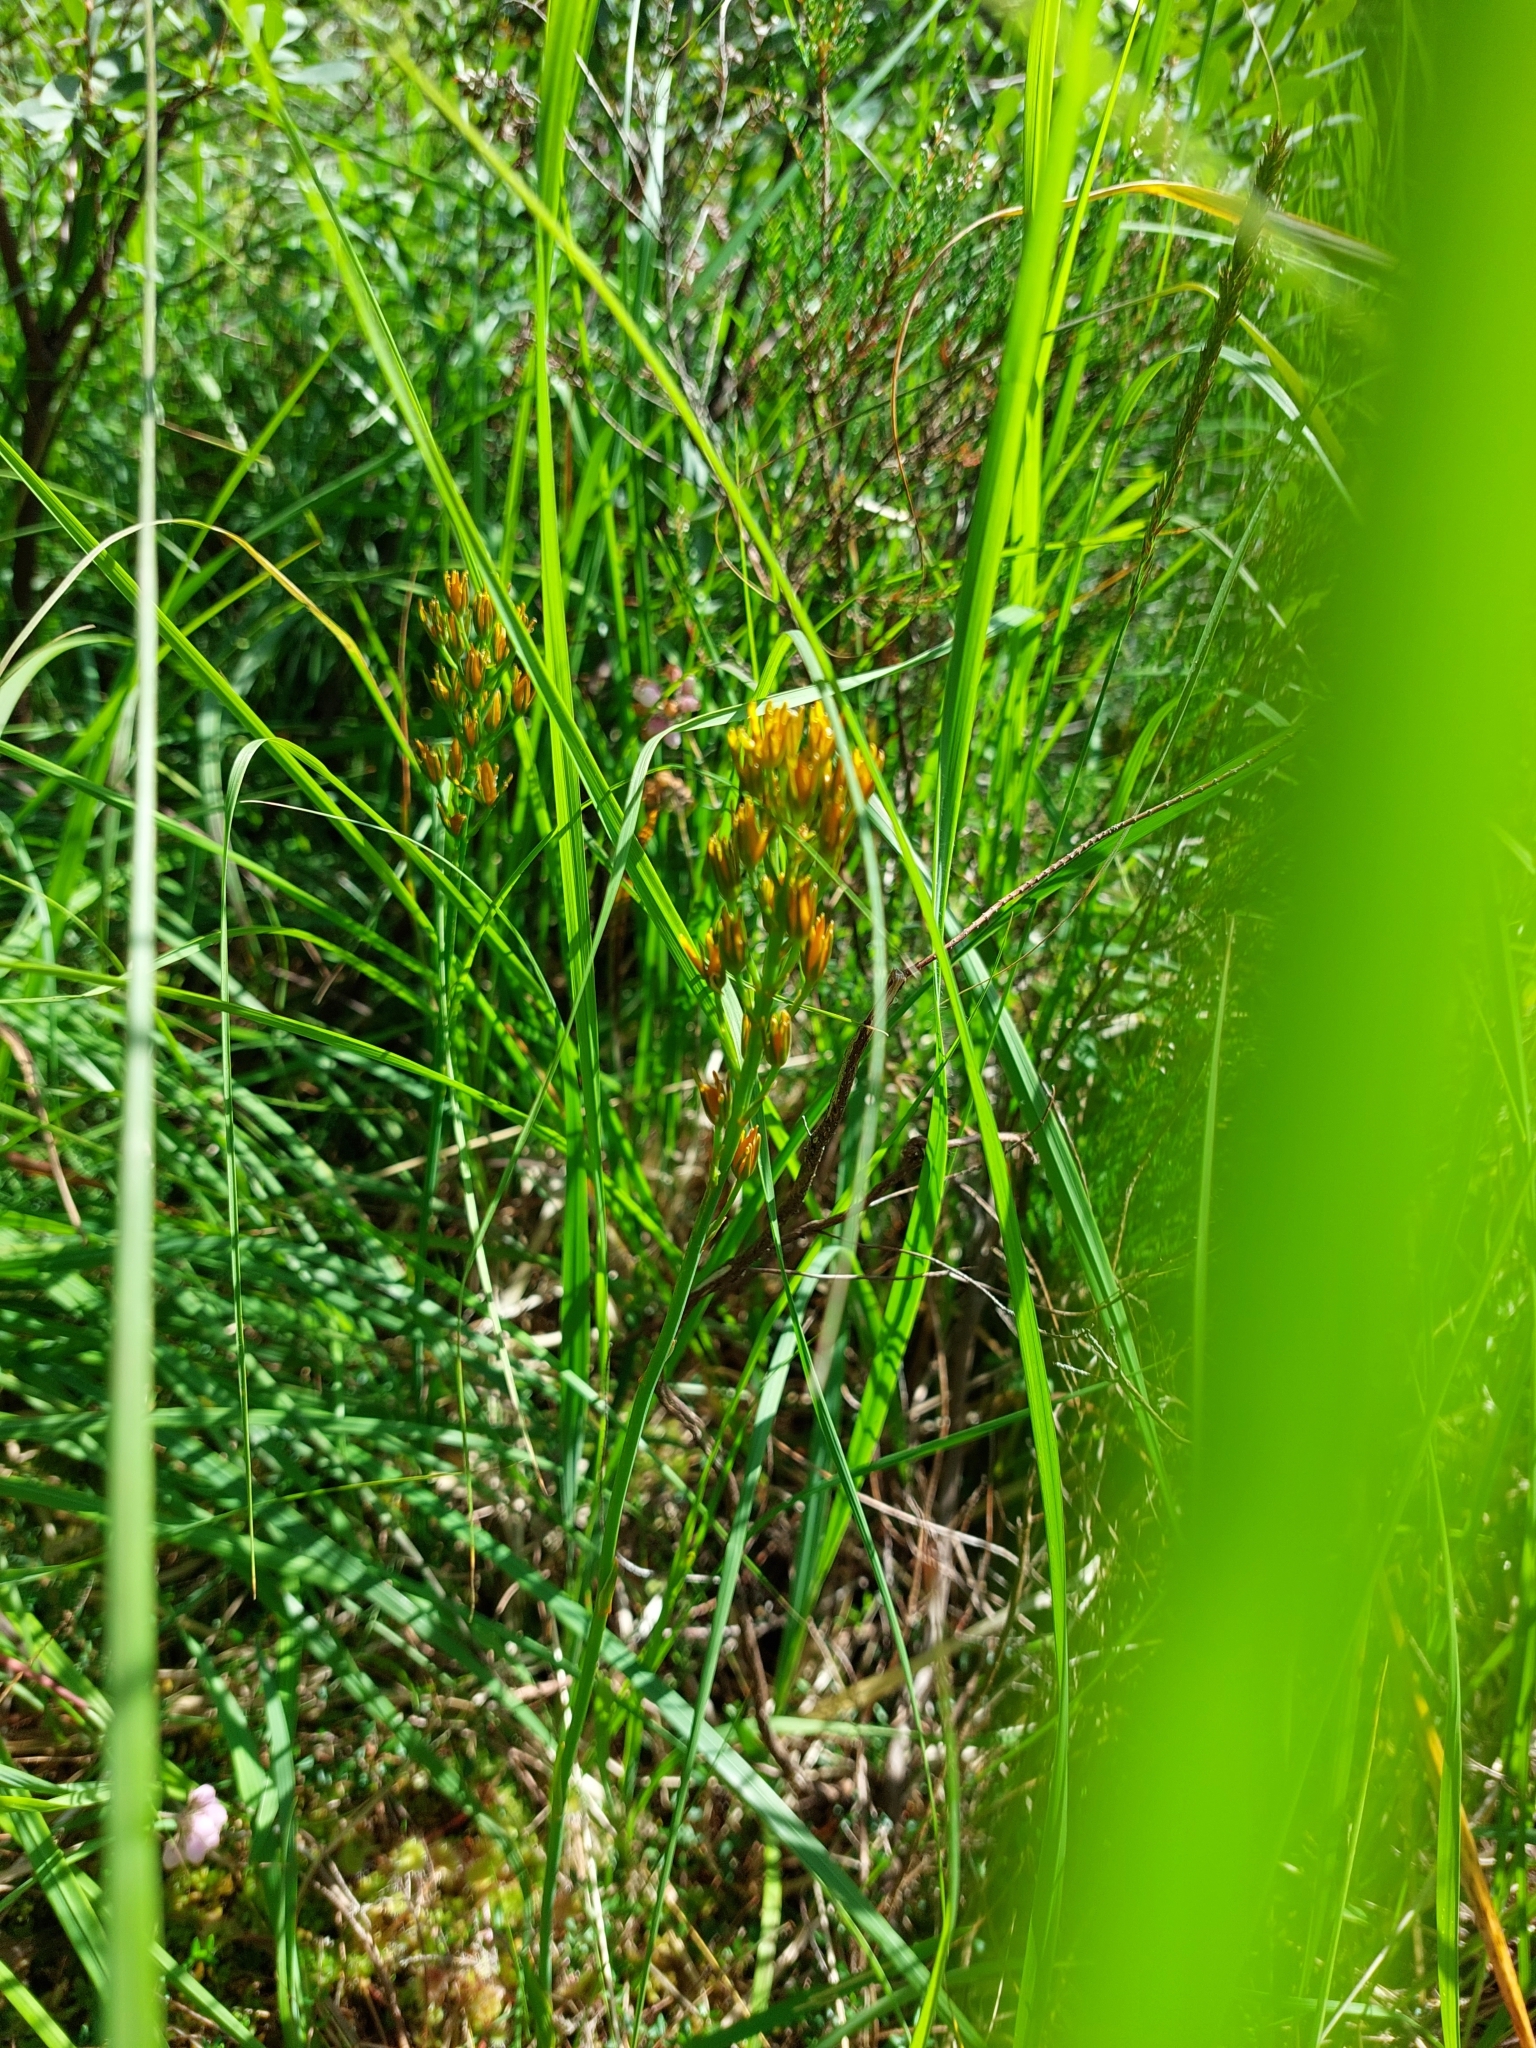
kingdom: Plantae
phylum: Tracheophyta
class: Liliopsida
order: Dioscoreales
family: Nartheciaceae
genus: Narthecium
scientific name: Narthecium ossifragum
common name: Bog asphodel
